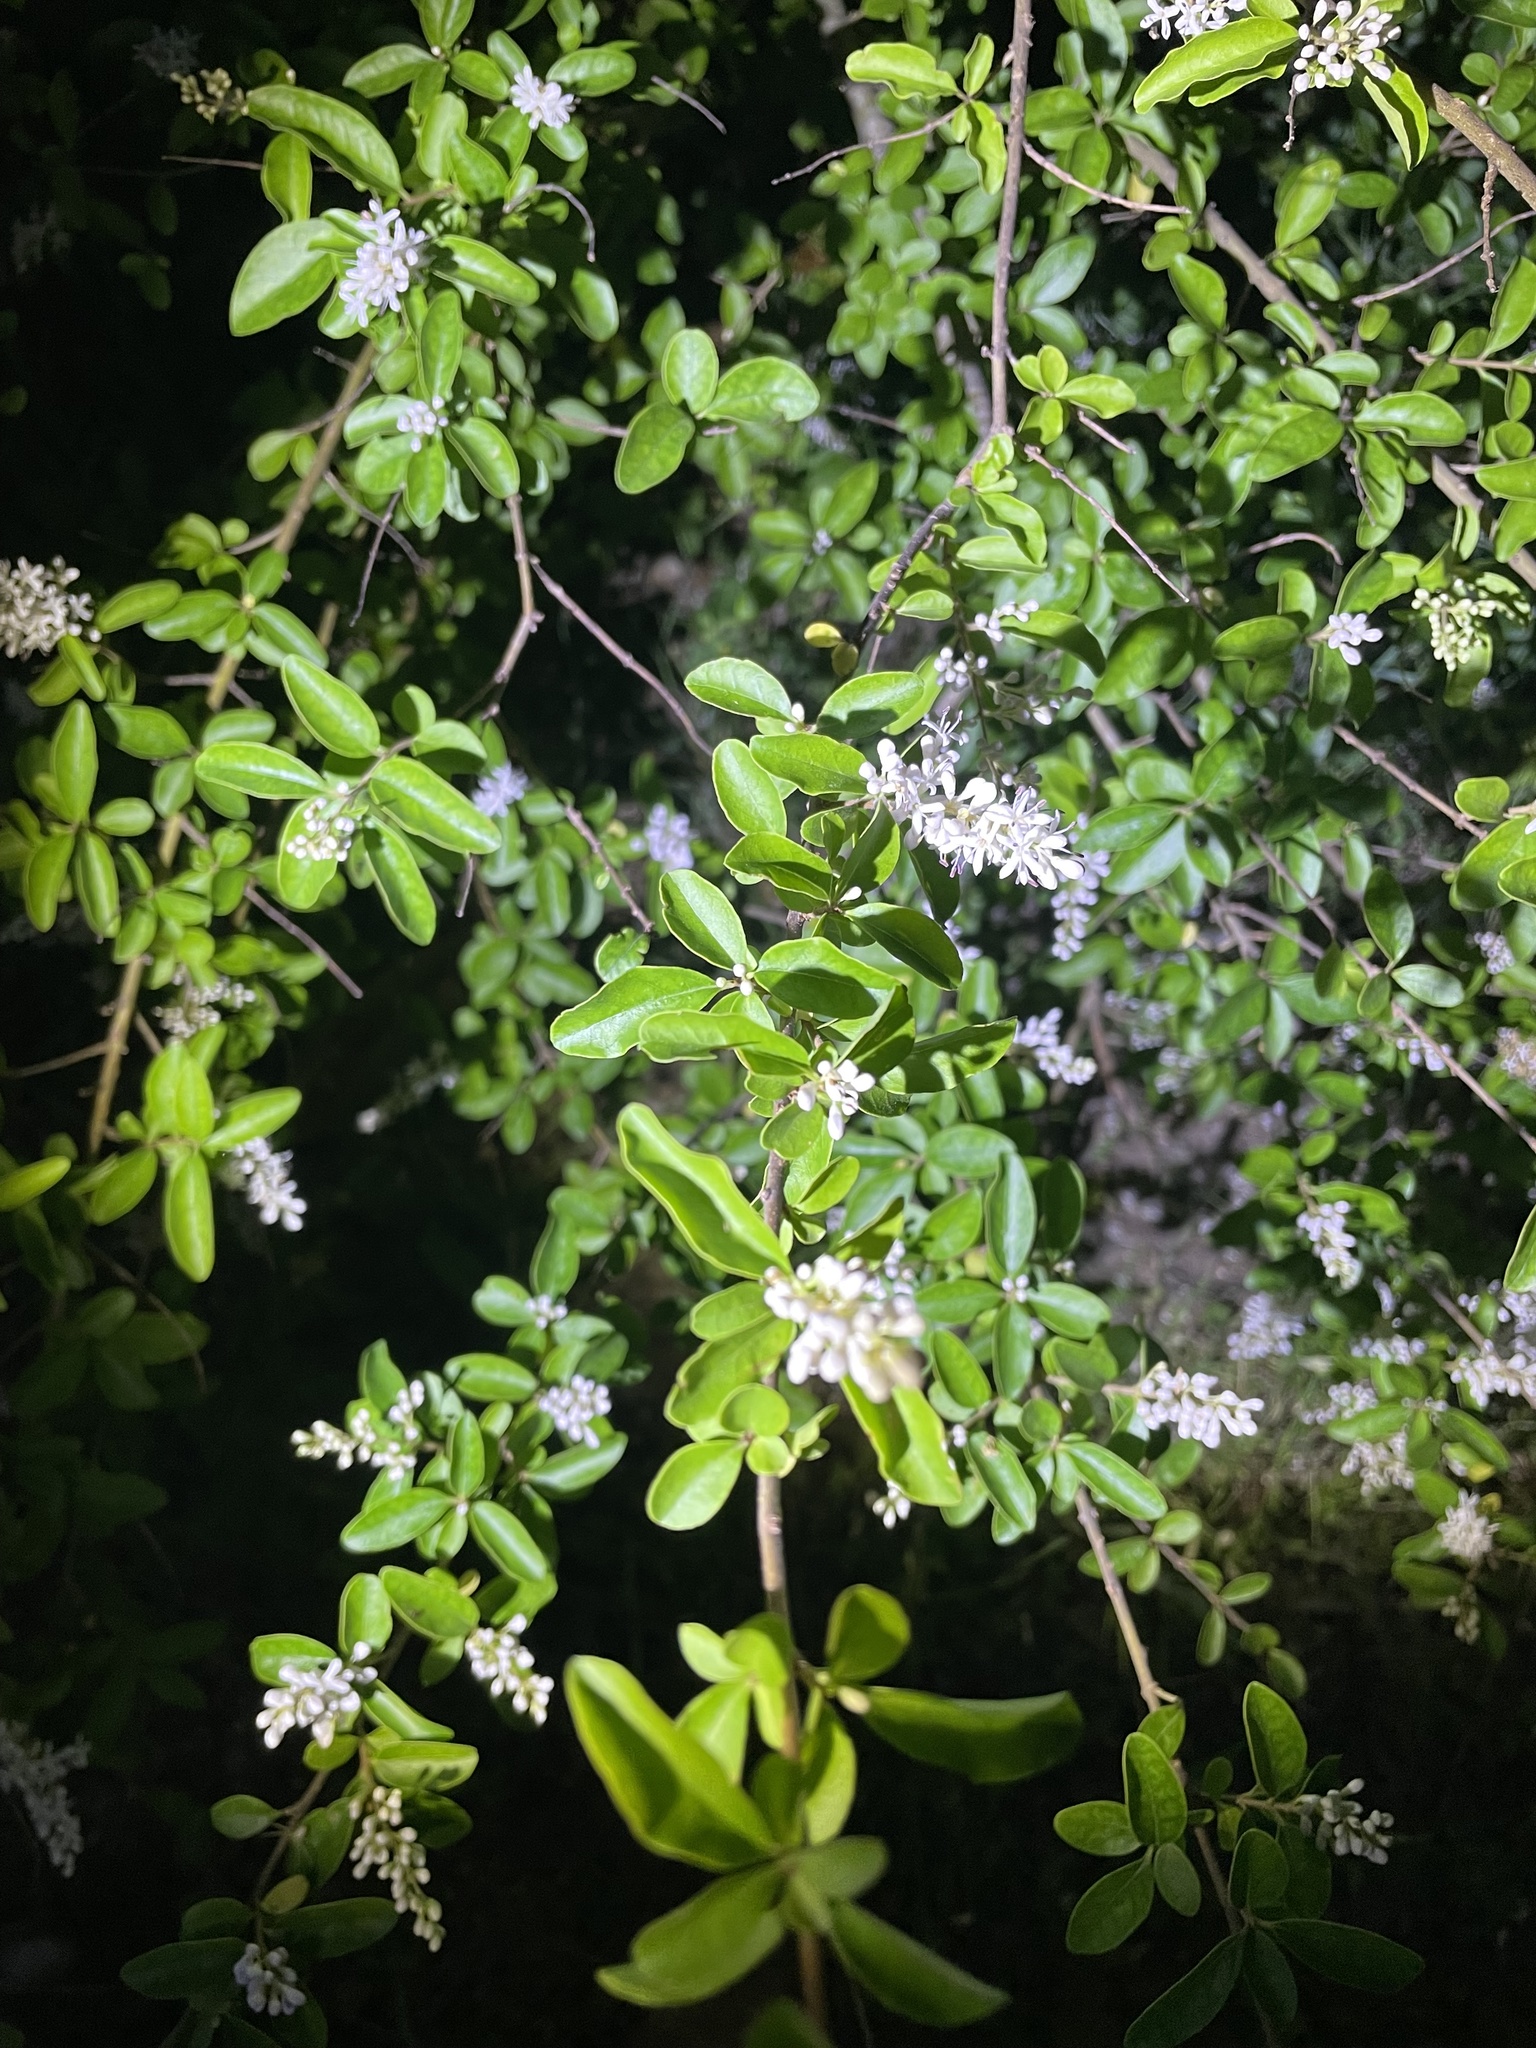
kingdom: Plantae
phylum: Tracheophyta
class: Magnoliopsida
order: Lamiales
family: Oleaceae
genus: Ligustrum
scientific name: Ligustrum sinense
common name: Chinese privet
